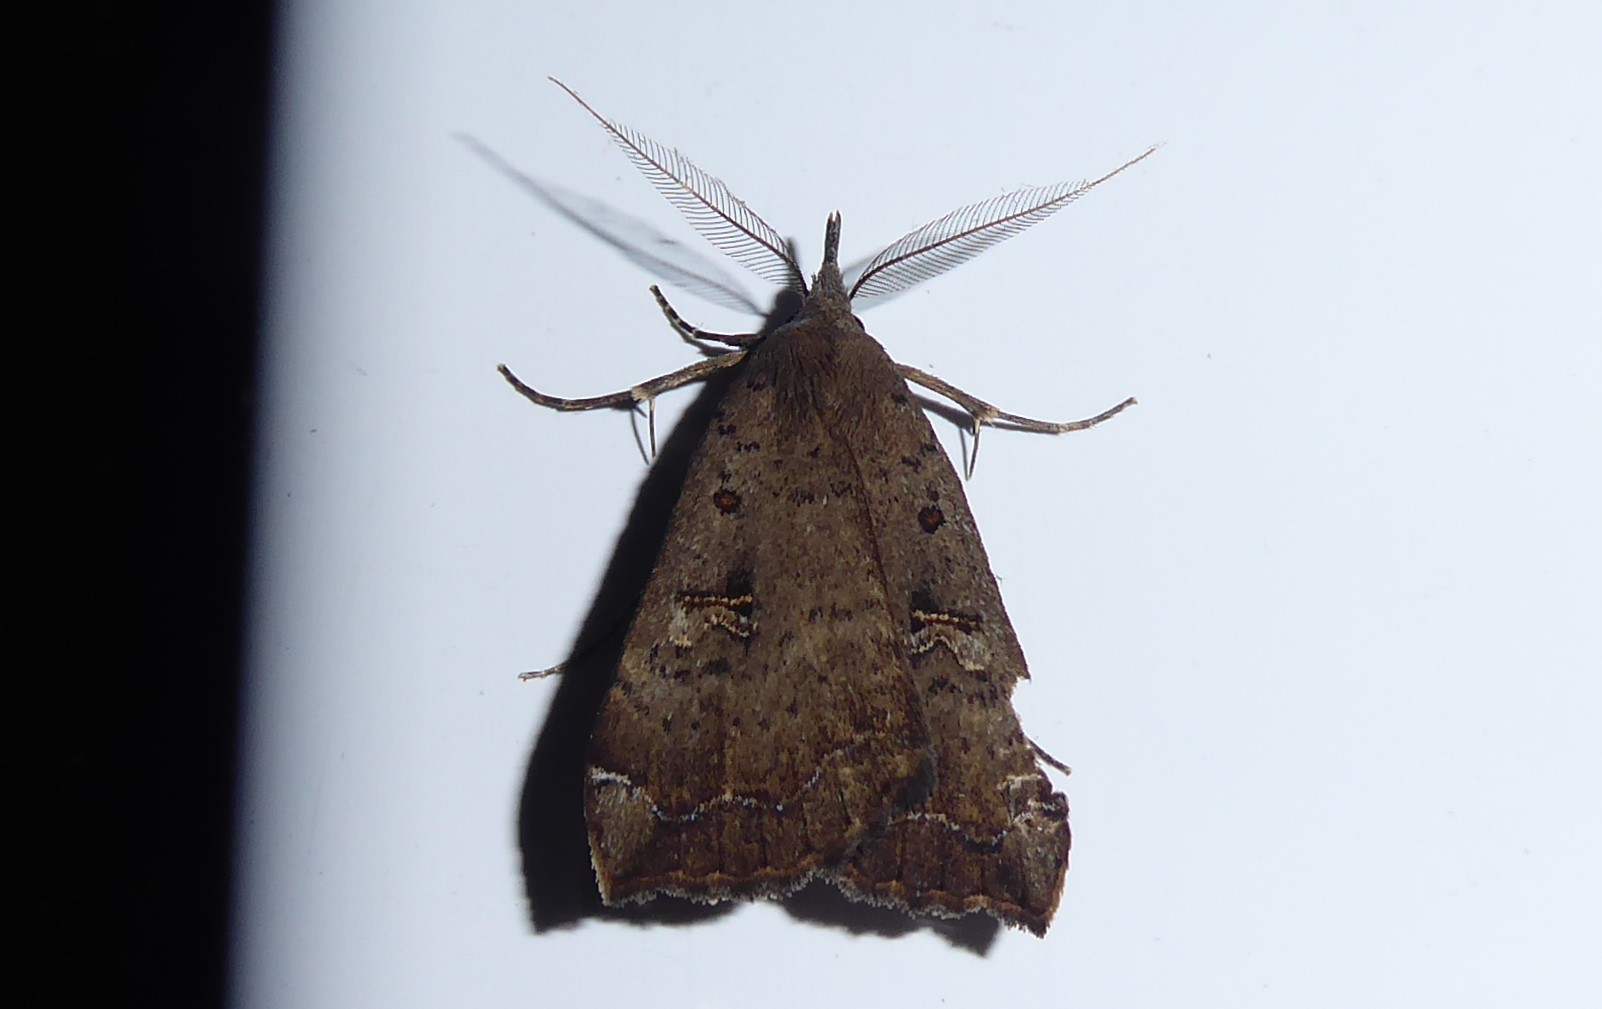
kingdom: Animalia
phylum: Arthropoda
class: Insecta
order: Lepidoptera
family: Erebidae
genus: Rhapsa
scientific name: Rhapsa scotosialis
